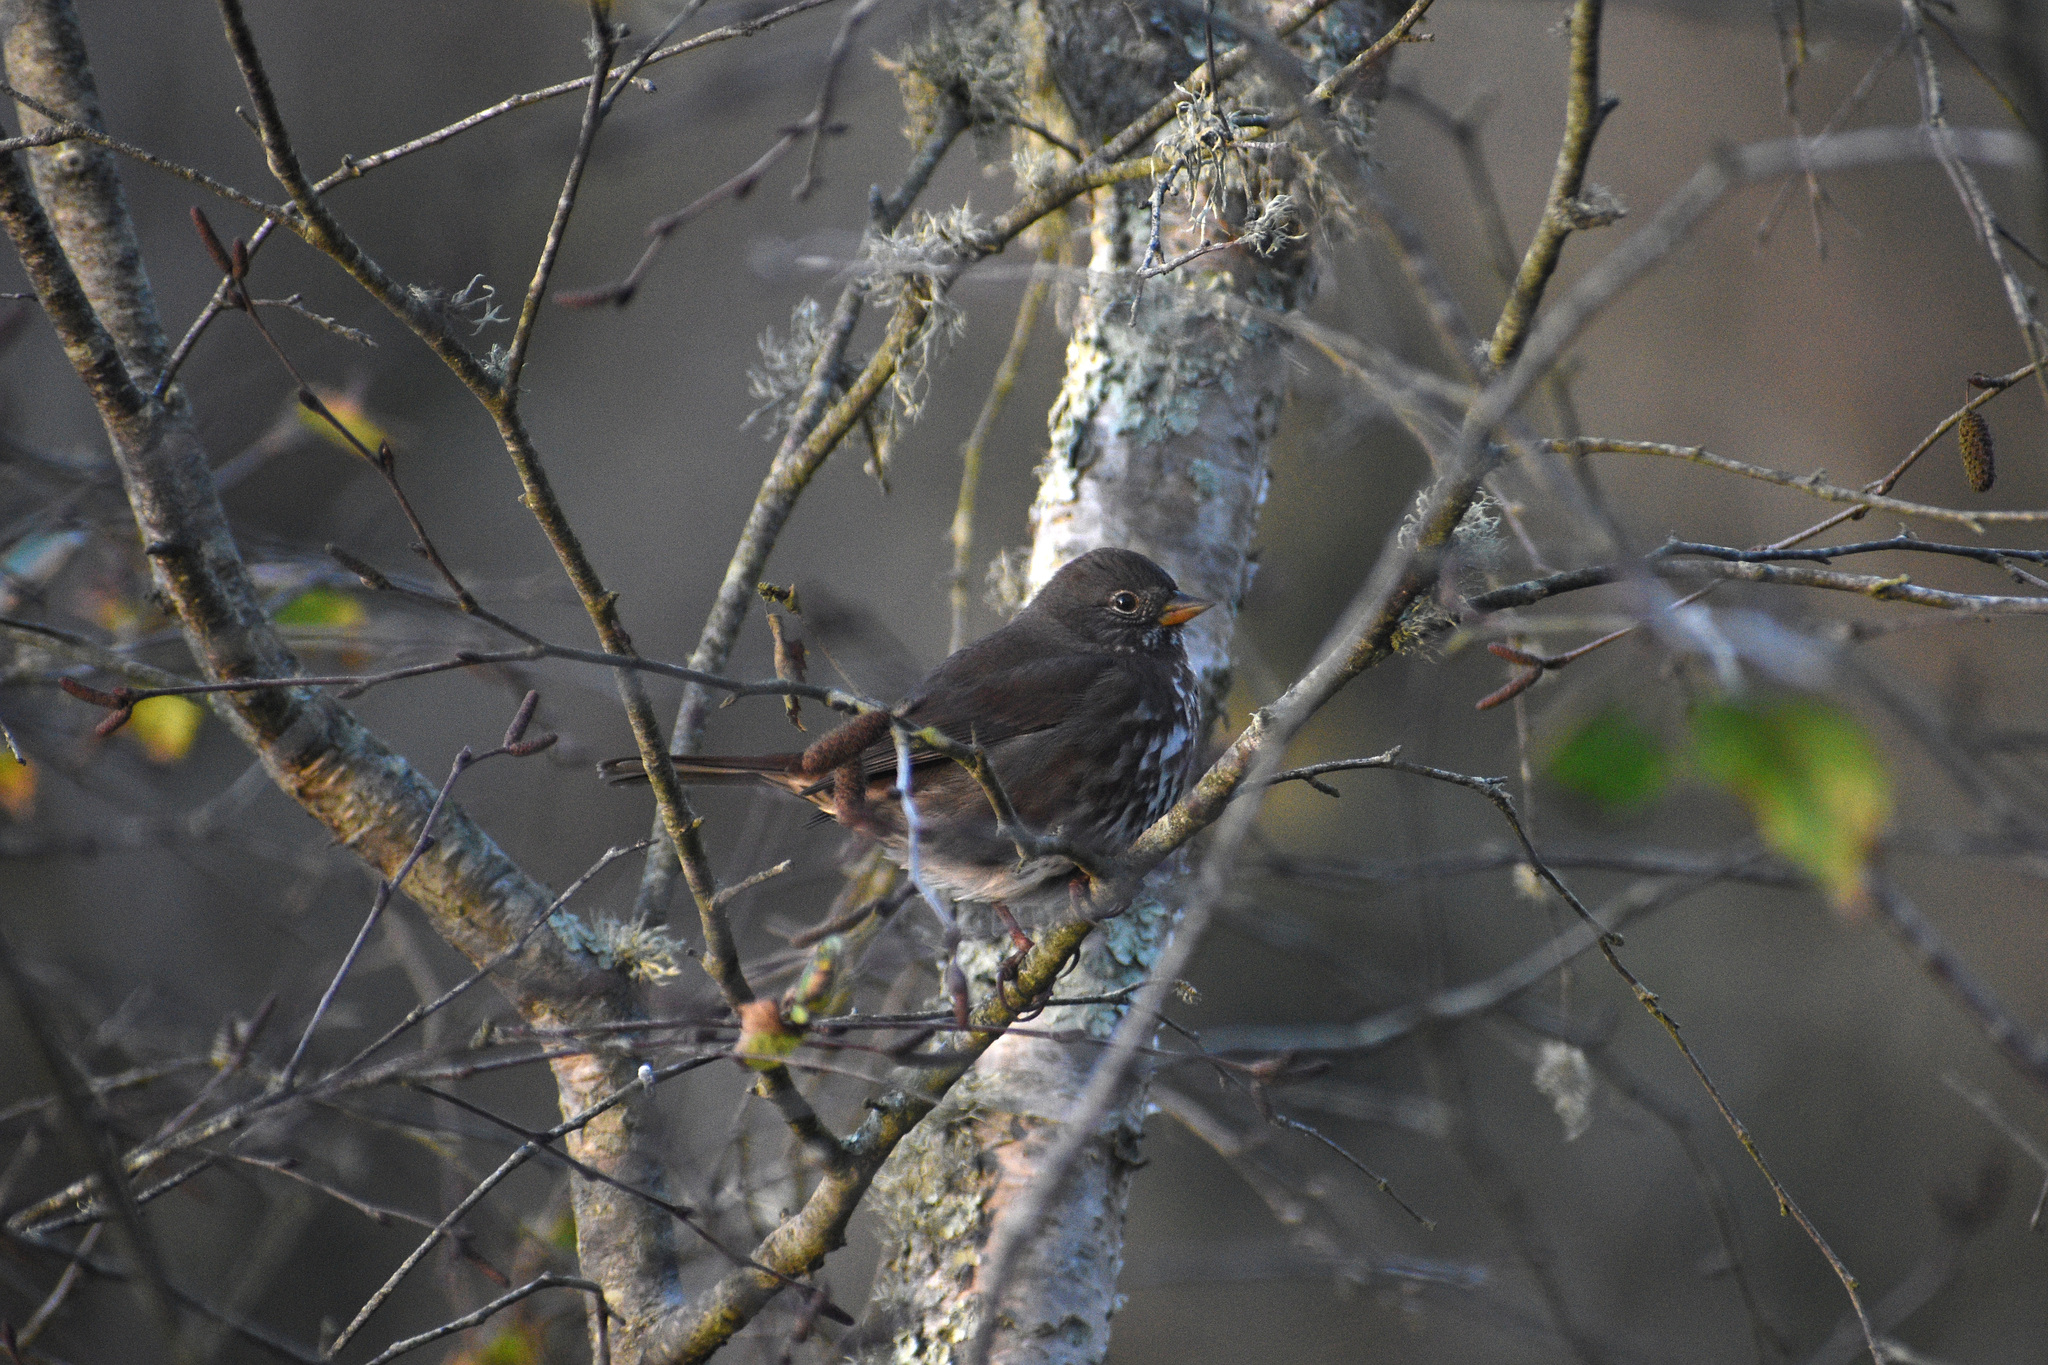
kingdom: Animalia
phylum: Chordata
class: Aves
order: Passeriformes
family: Passerellidae
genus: Passerella
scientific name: Passerella iliaca
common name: Fox sparrow
